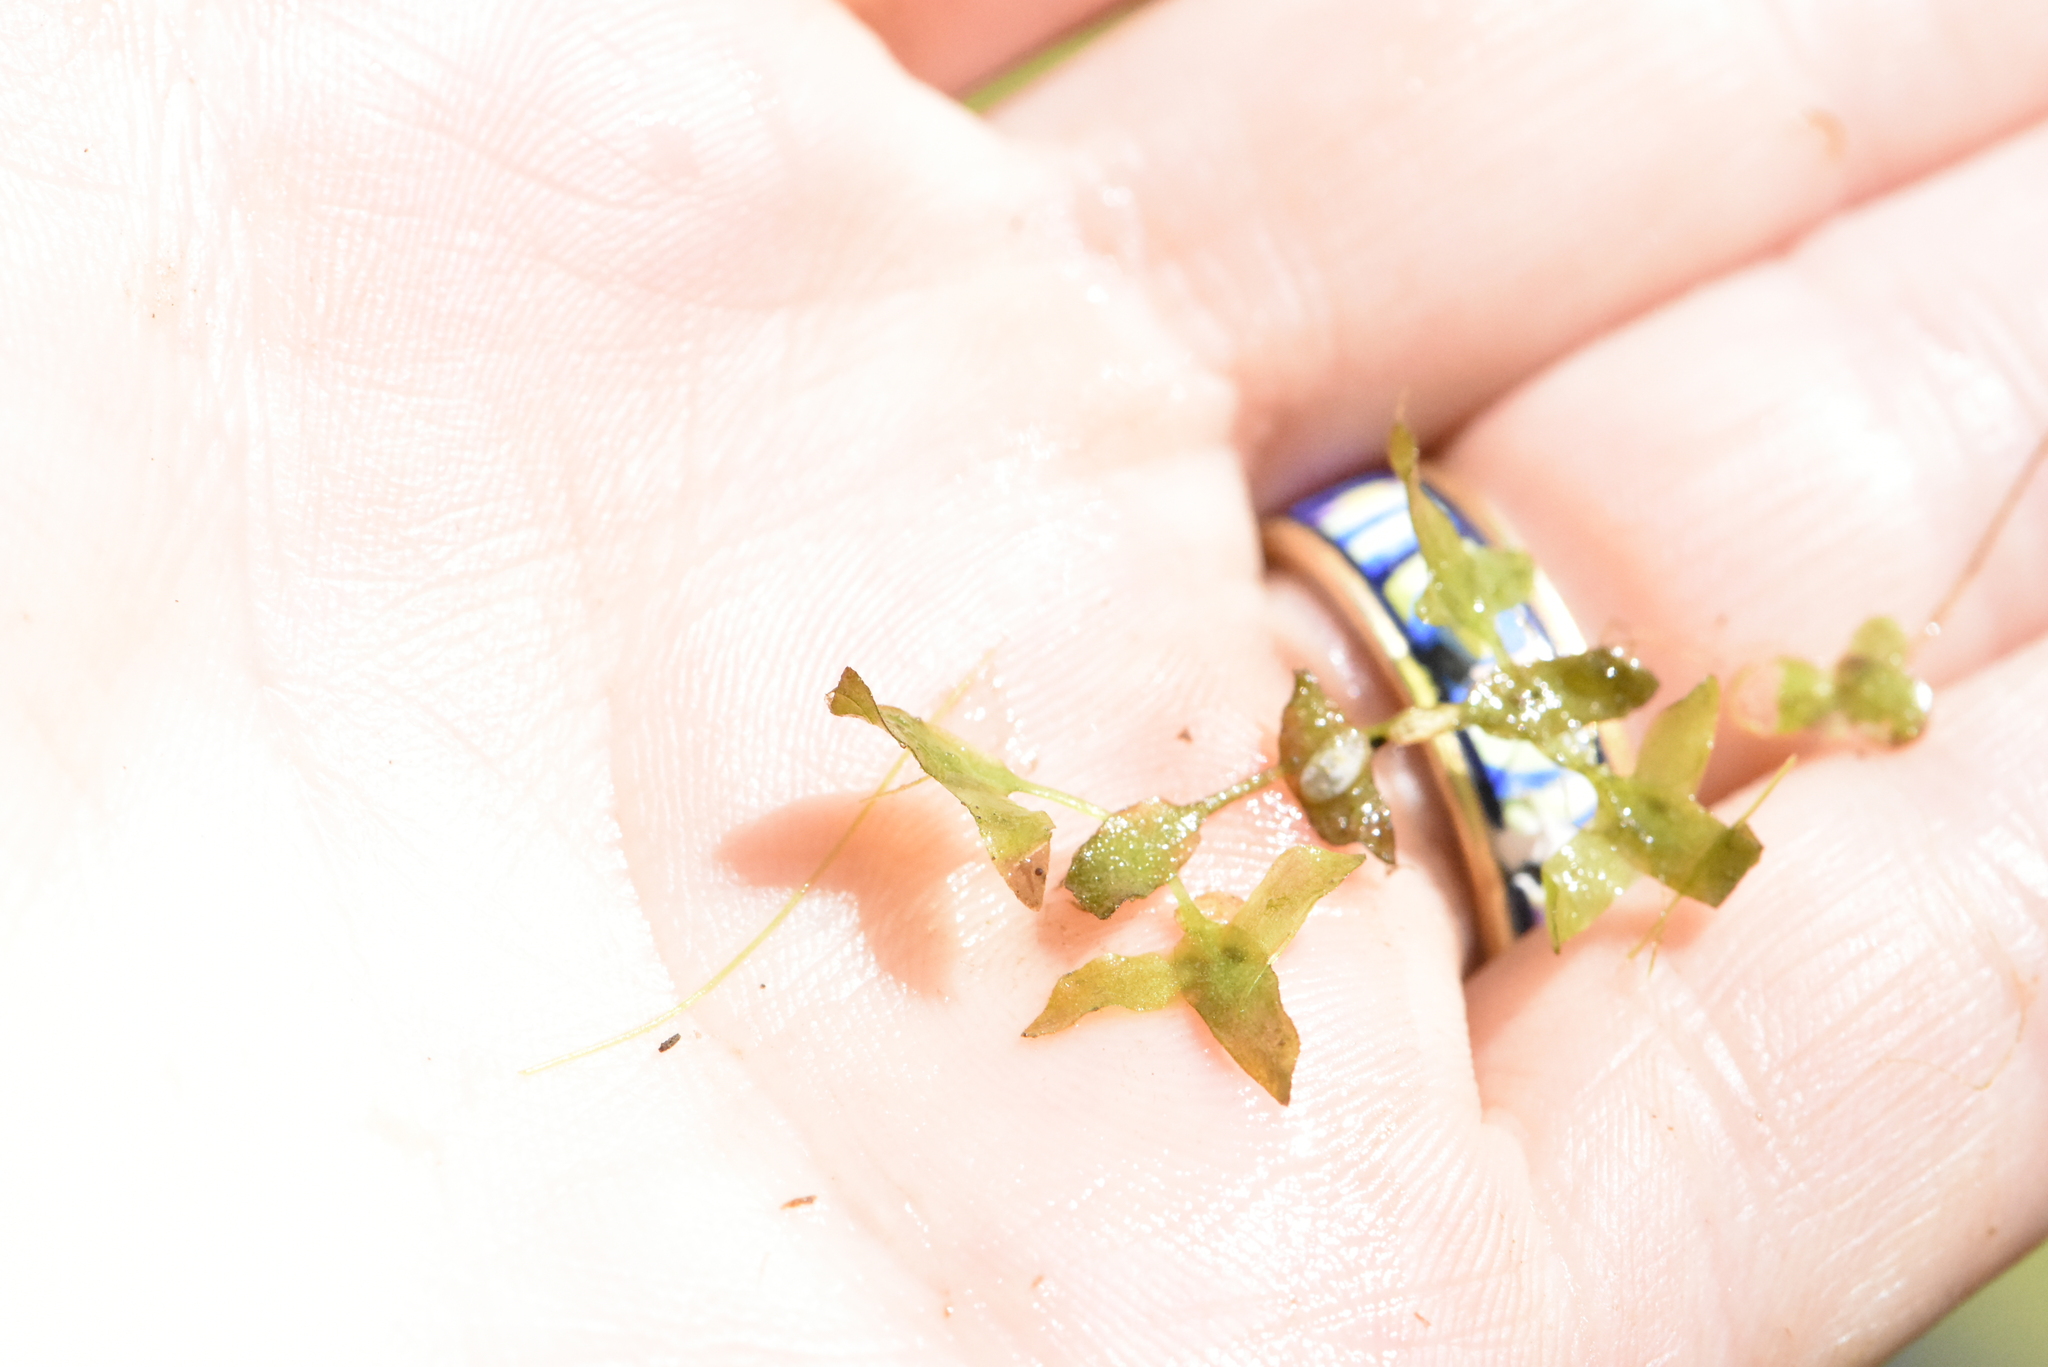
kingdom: Plantae
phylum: Tracheophyta
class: Liliopsida
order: Alismatales
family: Araceae
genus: Lemna
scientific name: Lemna trisulca
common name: Ivy-leaved duckweed
